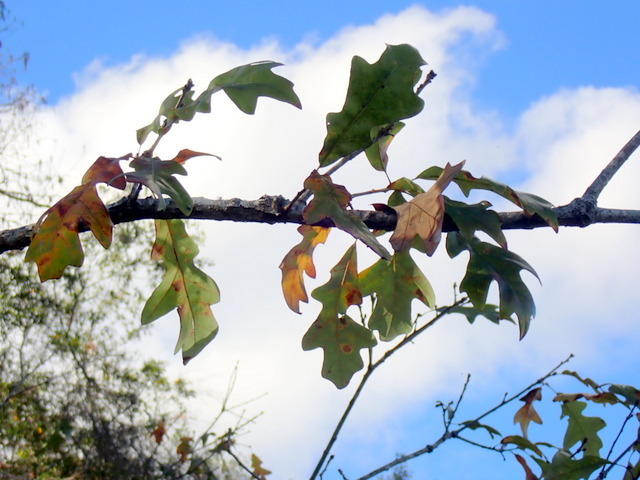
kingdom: Plantae
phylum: Tracheophyta
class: Magnoliopsida
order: Fagales
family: Fagaceae
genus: Quercus
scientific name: Quercus lyrata
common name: Overcup oak
